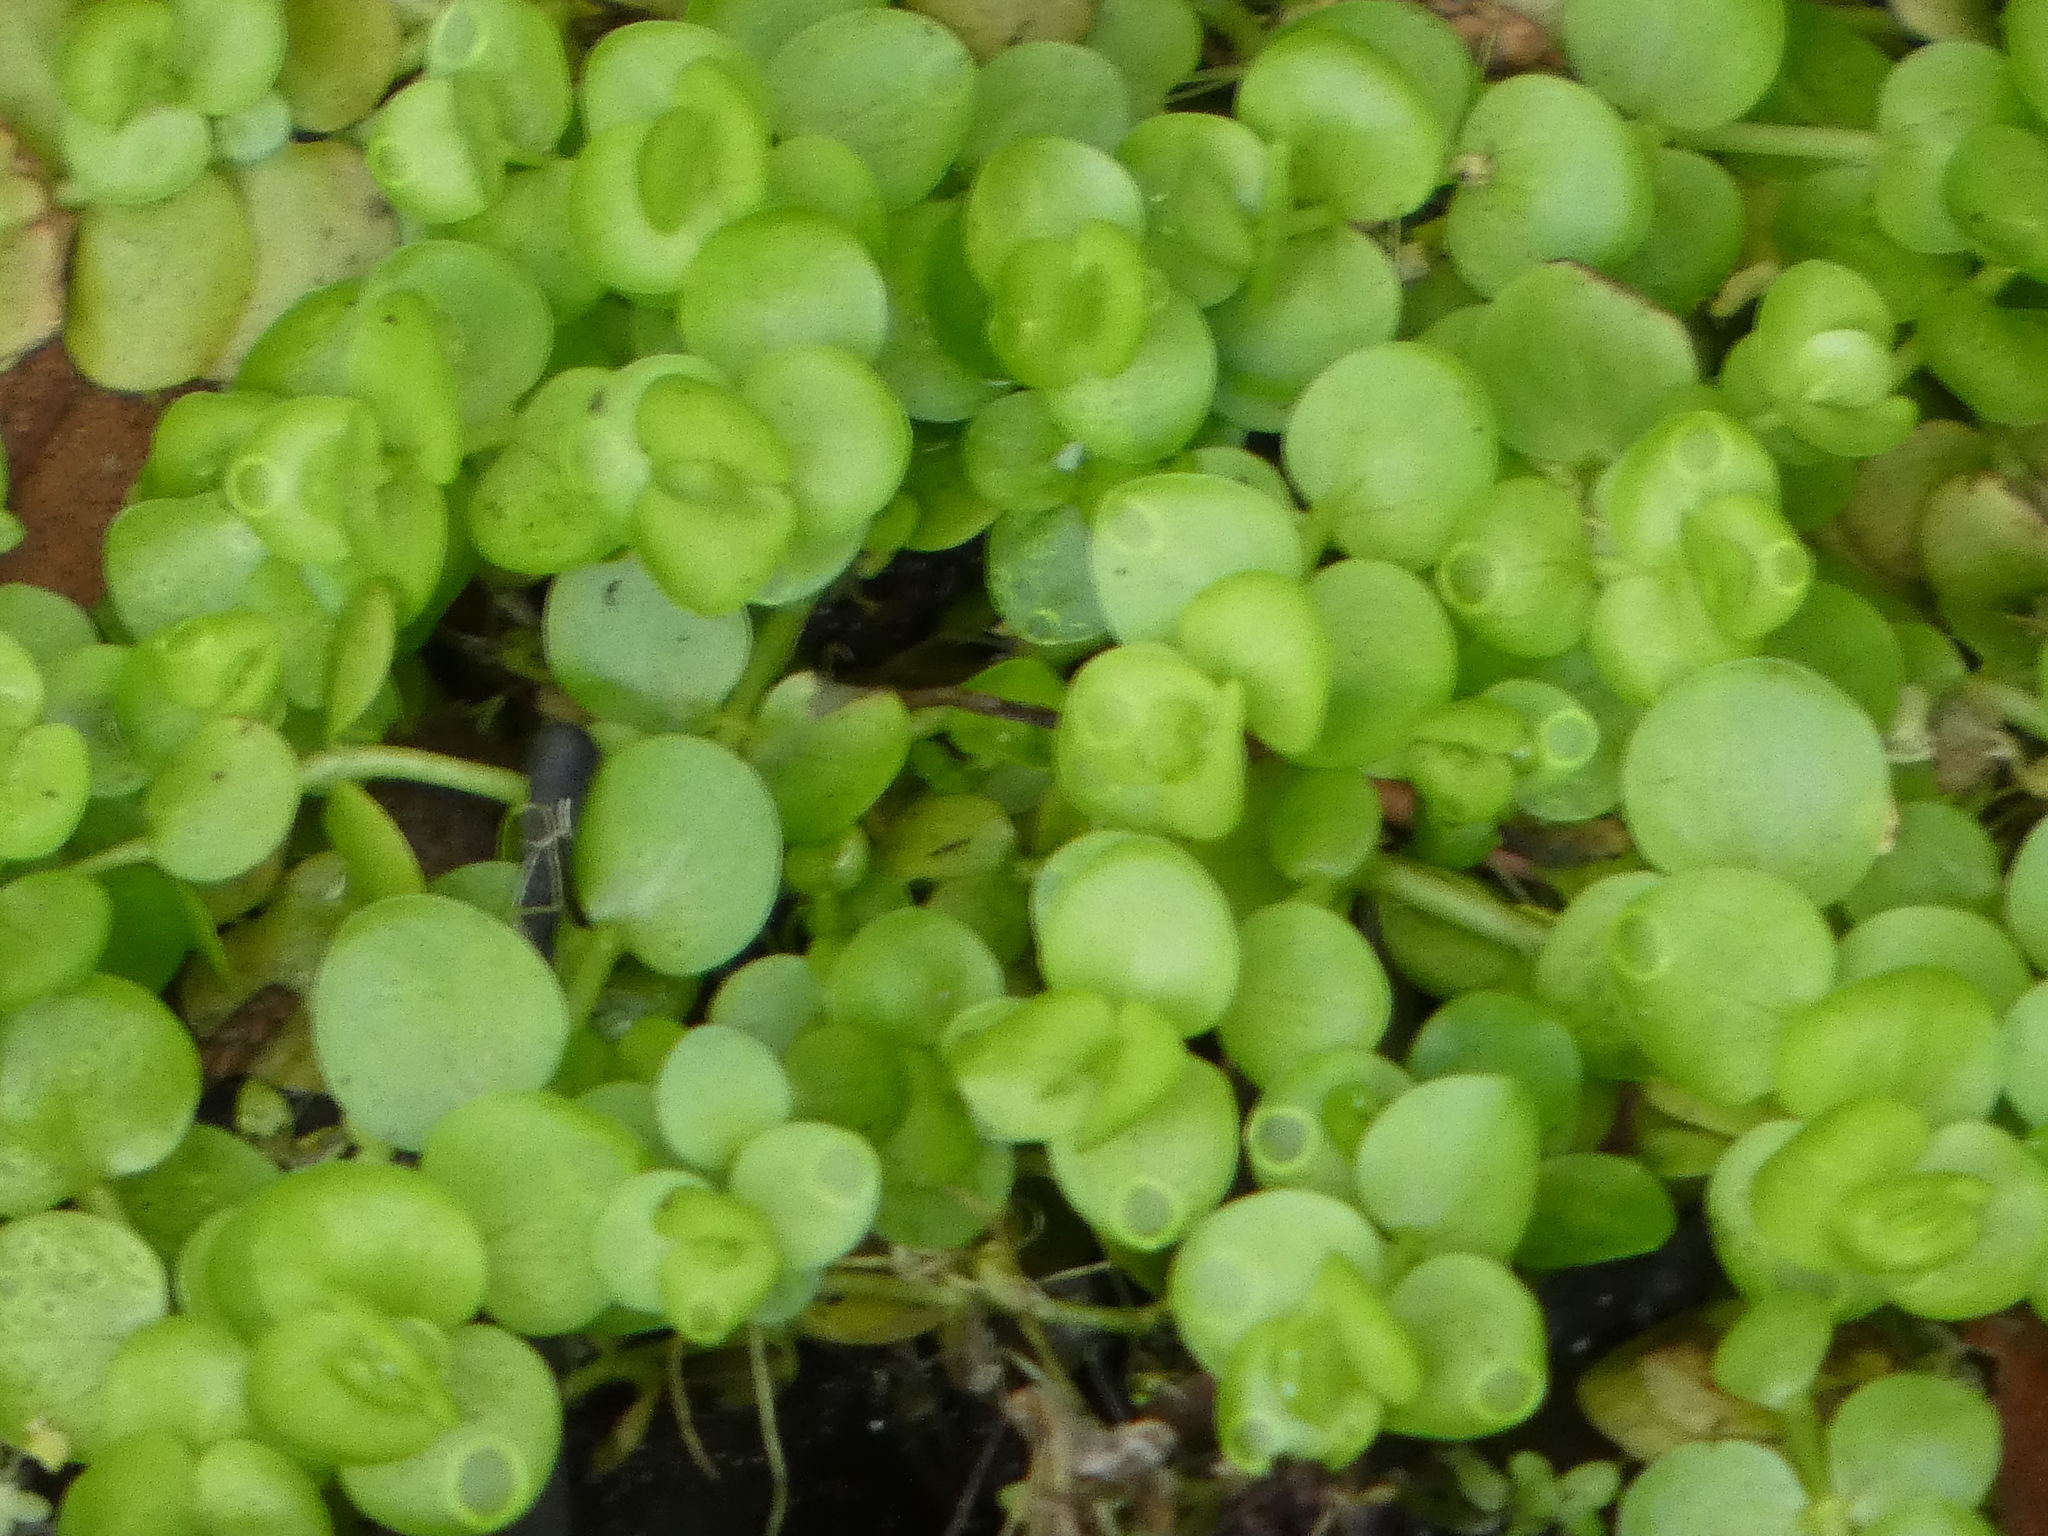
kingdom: Plantae
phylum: Tracheophyta
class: Magnoliopsida
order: Lamiales
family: Linderniaceae
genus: Micranthemum
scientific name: Micranthemum umbrosum
